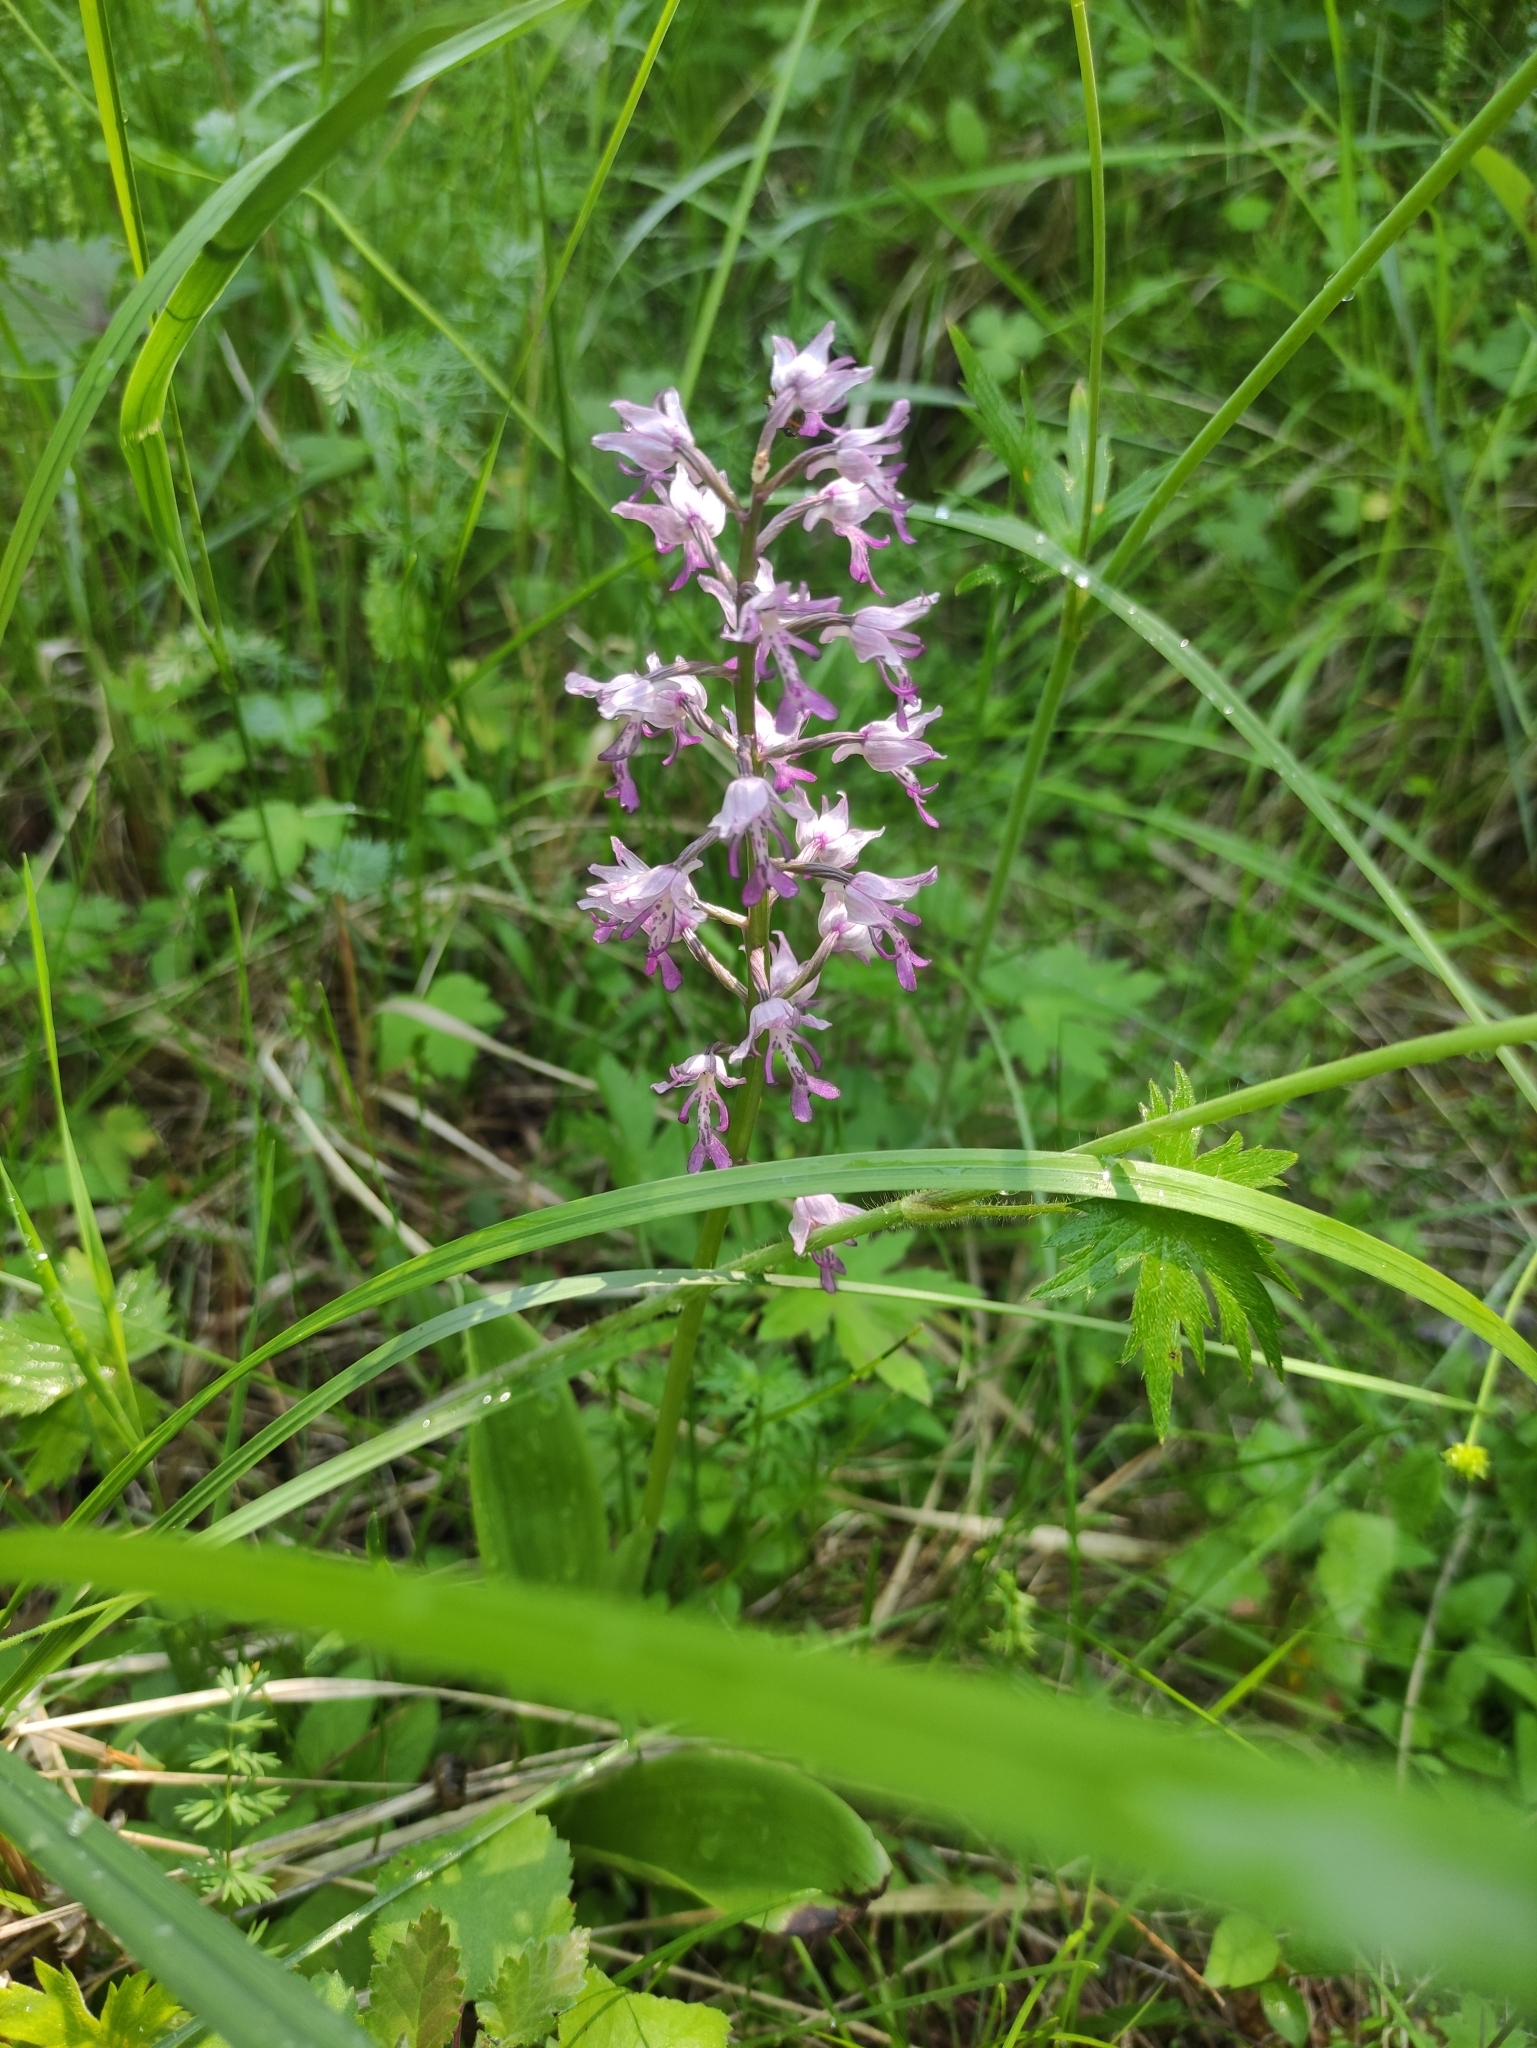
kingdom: Plantae
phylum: Tracheophyta
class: Liliopsida
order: Asparagales
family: Orchidaceae
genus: Orchis
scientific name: Orchis militaris
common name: Military orchid
